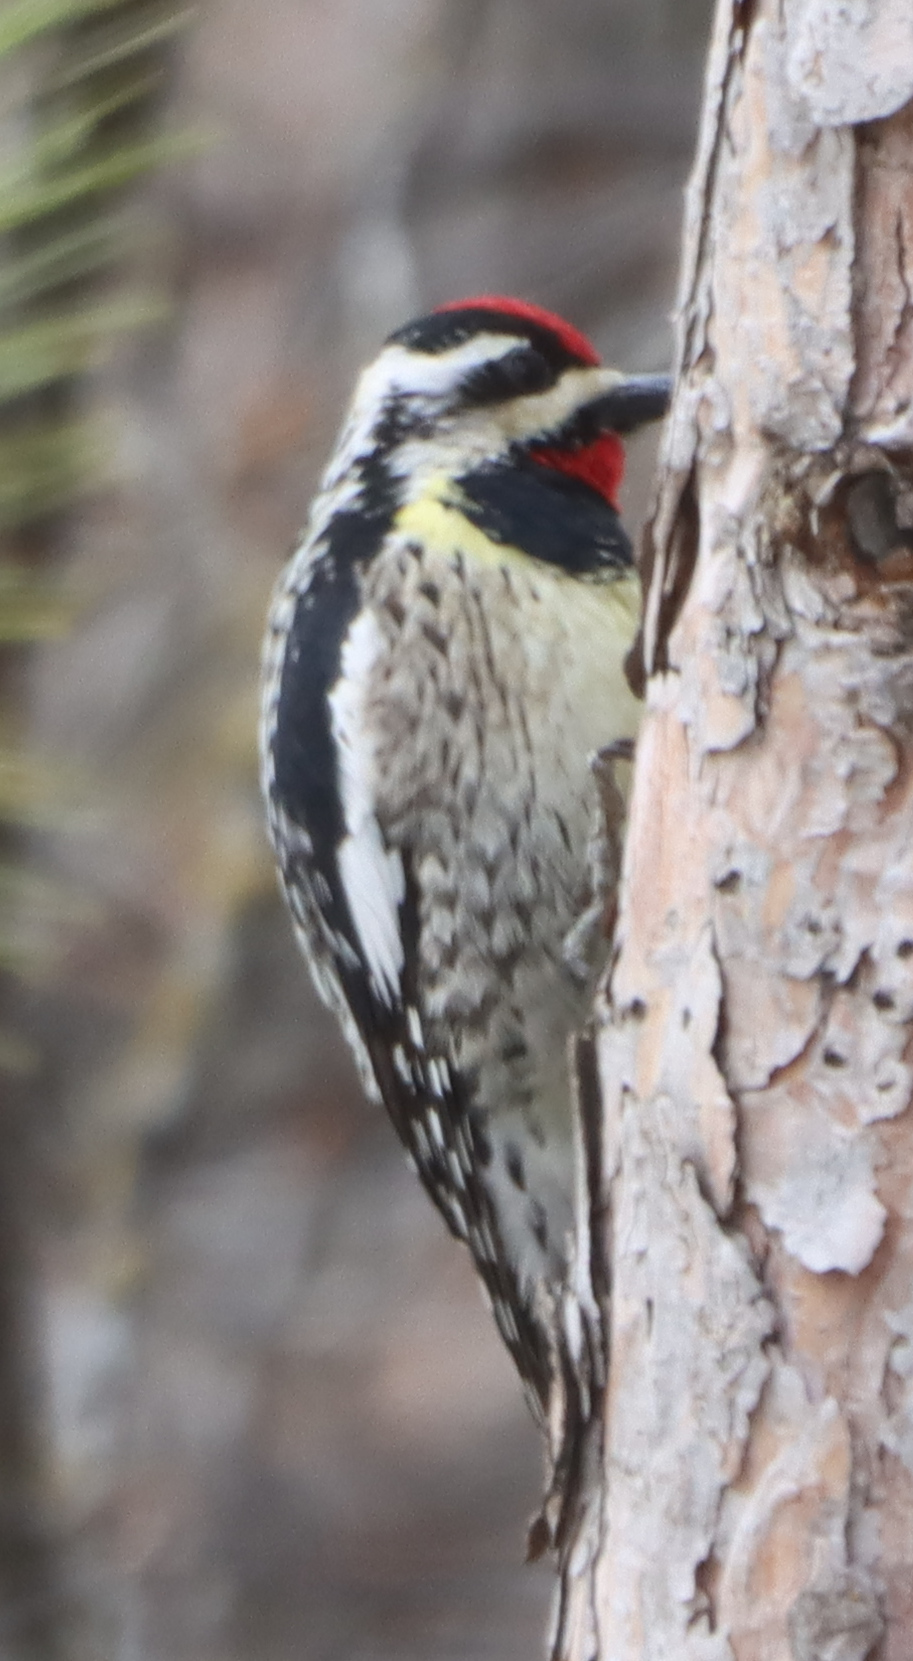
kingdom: Animalia
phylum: Chordata
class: Aves
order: Piciformes
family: Picidae
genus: Sphyrapicus
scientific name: Sphyrapicus varius
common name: Yellow-bellied sapsucker
